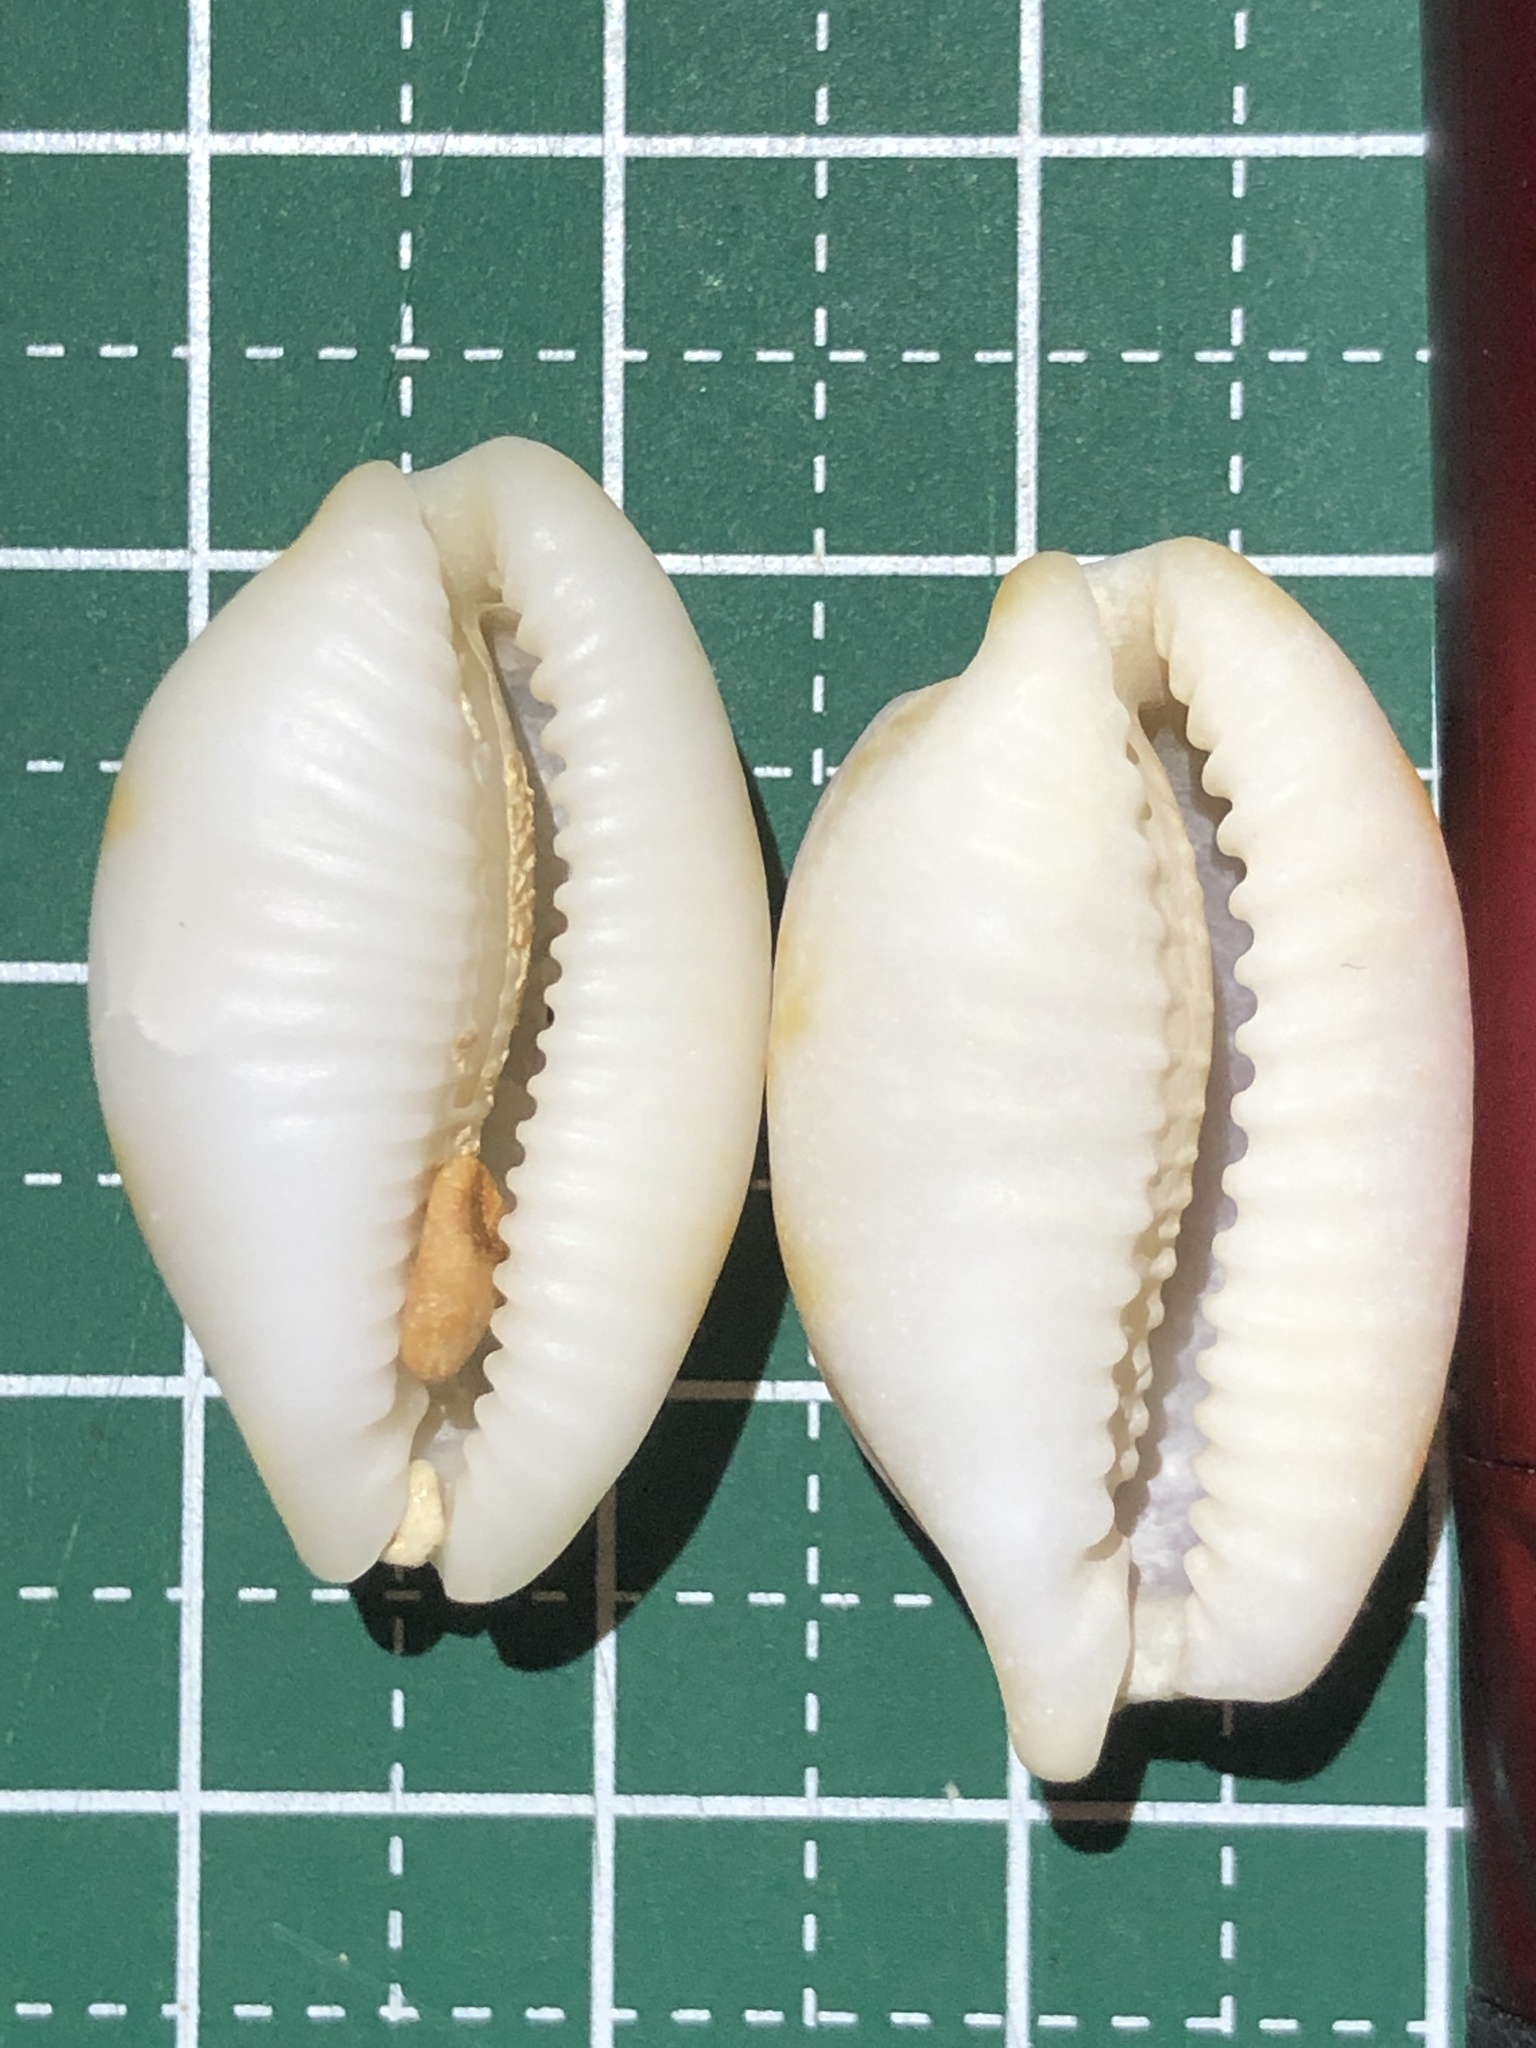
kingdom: Animalia
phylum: Mollusca
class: Gastropoda
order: Littorinimorpha
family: Cypraeidae
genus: Bistolida
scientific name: Bistolida stolida
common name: Stolid cowrie
